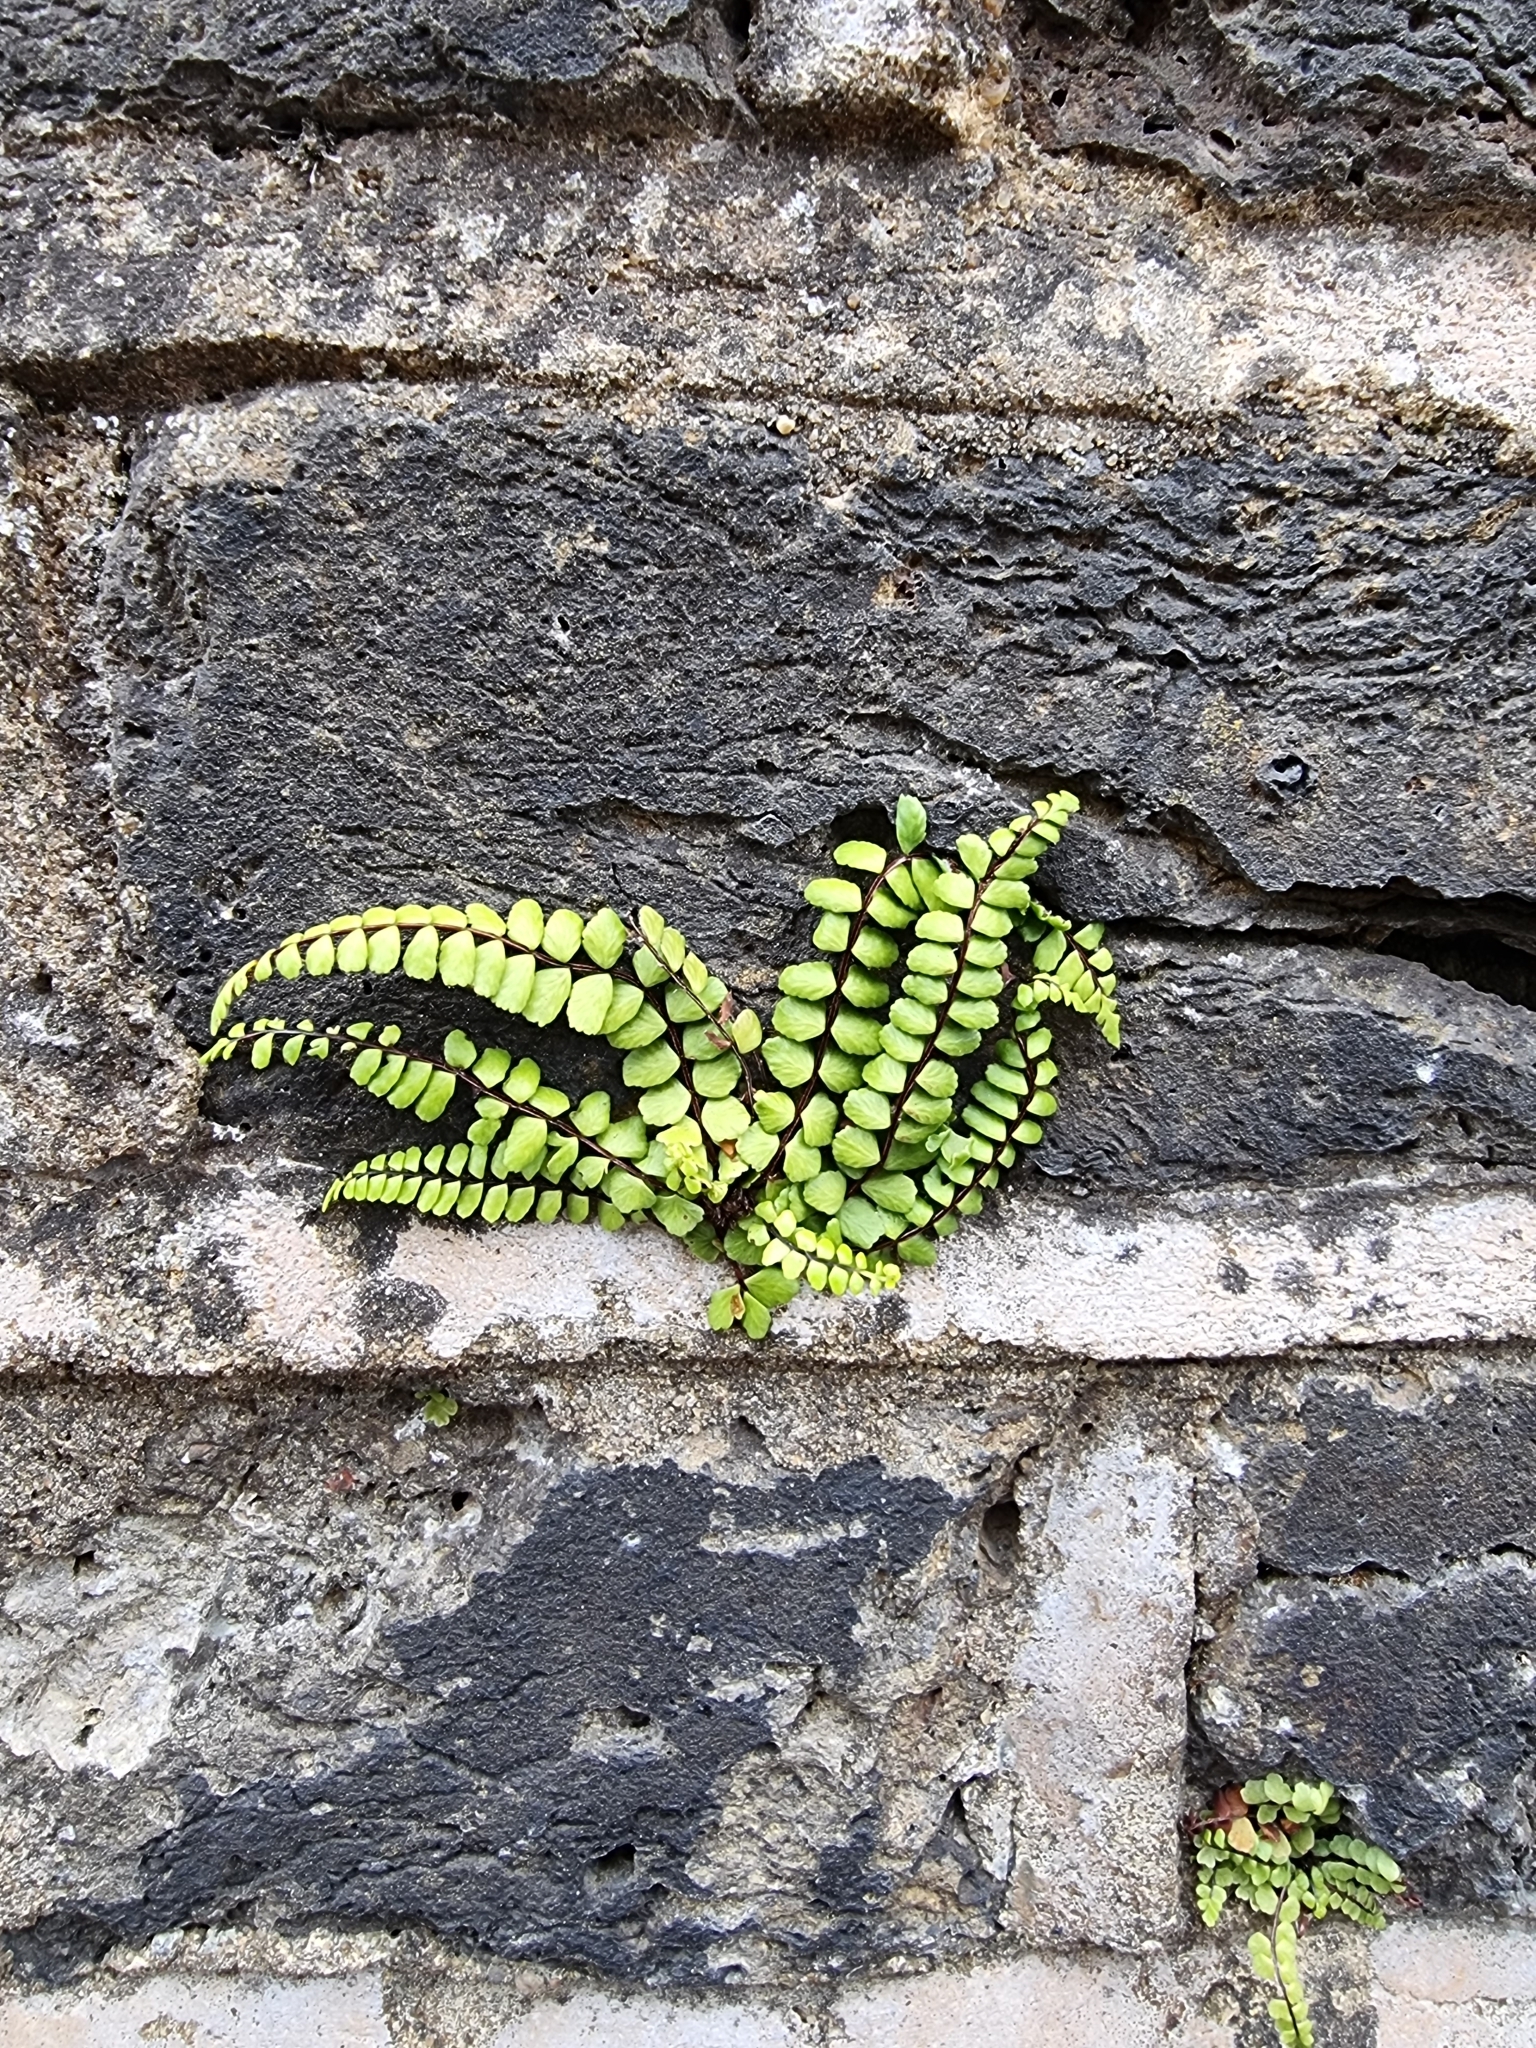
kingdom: Plantae
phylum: Tracheophyta
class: Polypodiopsida
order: Polypodiales
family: Aspleniaceae
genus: Asplenium
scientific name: Asplenium trichomanes
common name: Maidenhair spleenwort
